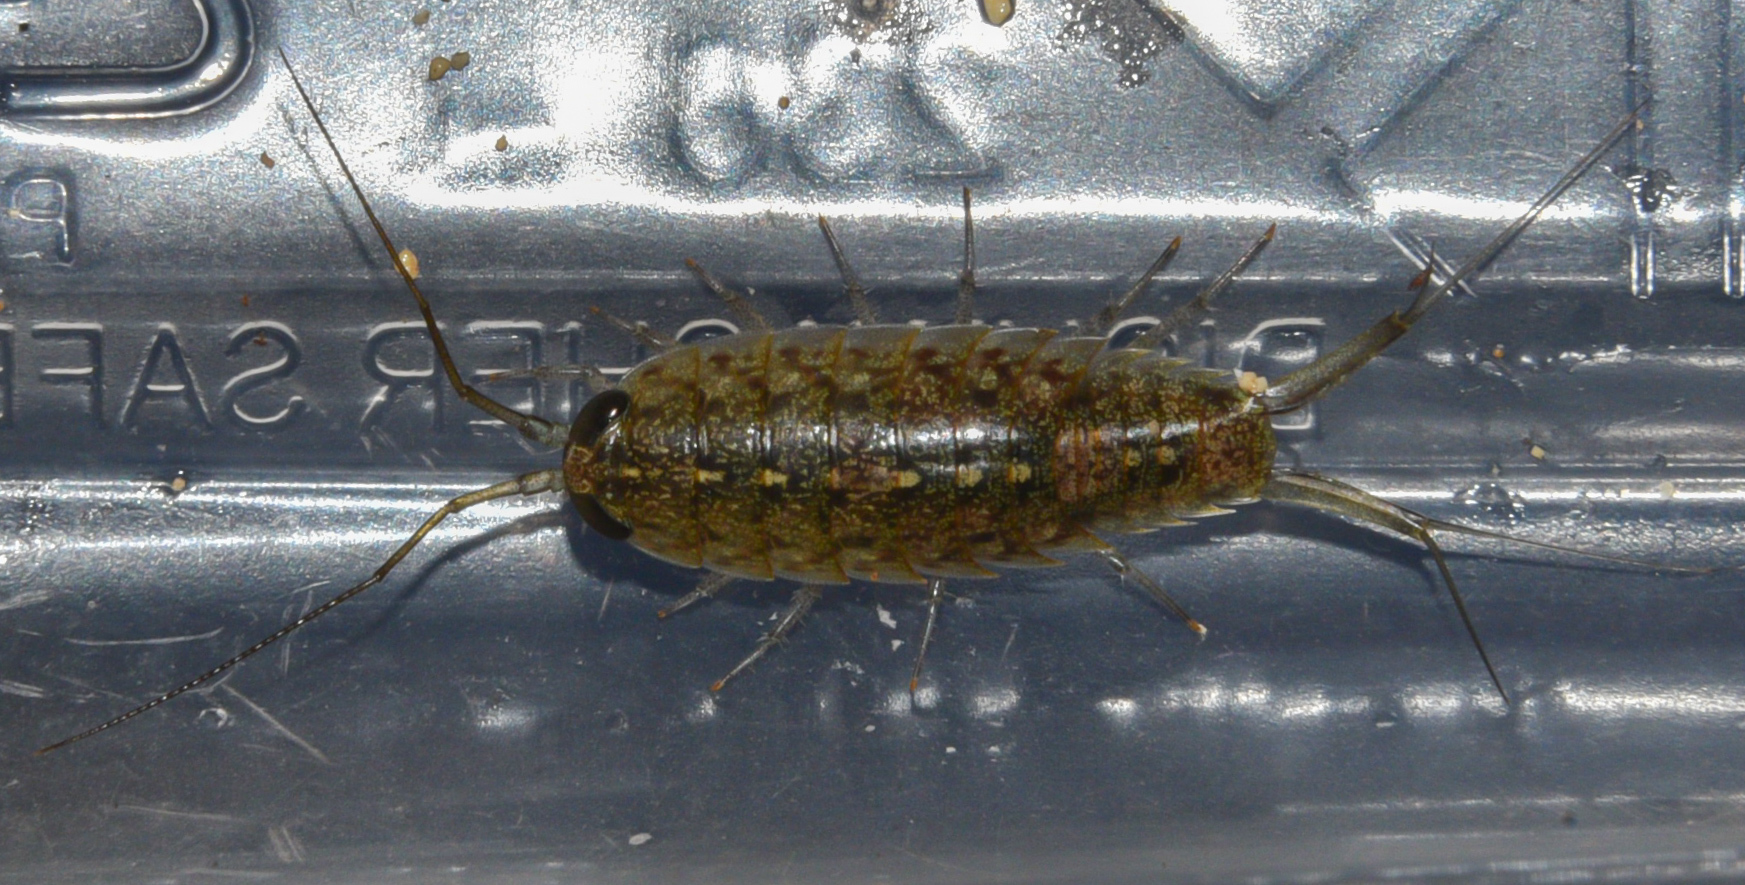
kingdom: Animalia
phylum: Arthropoda
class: Malacostraca
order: Isopoda
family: Ligiidae
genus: Ligia
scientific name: Ligia hawaiensis
